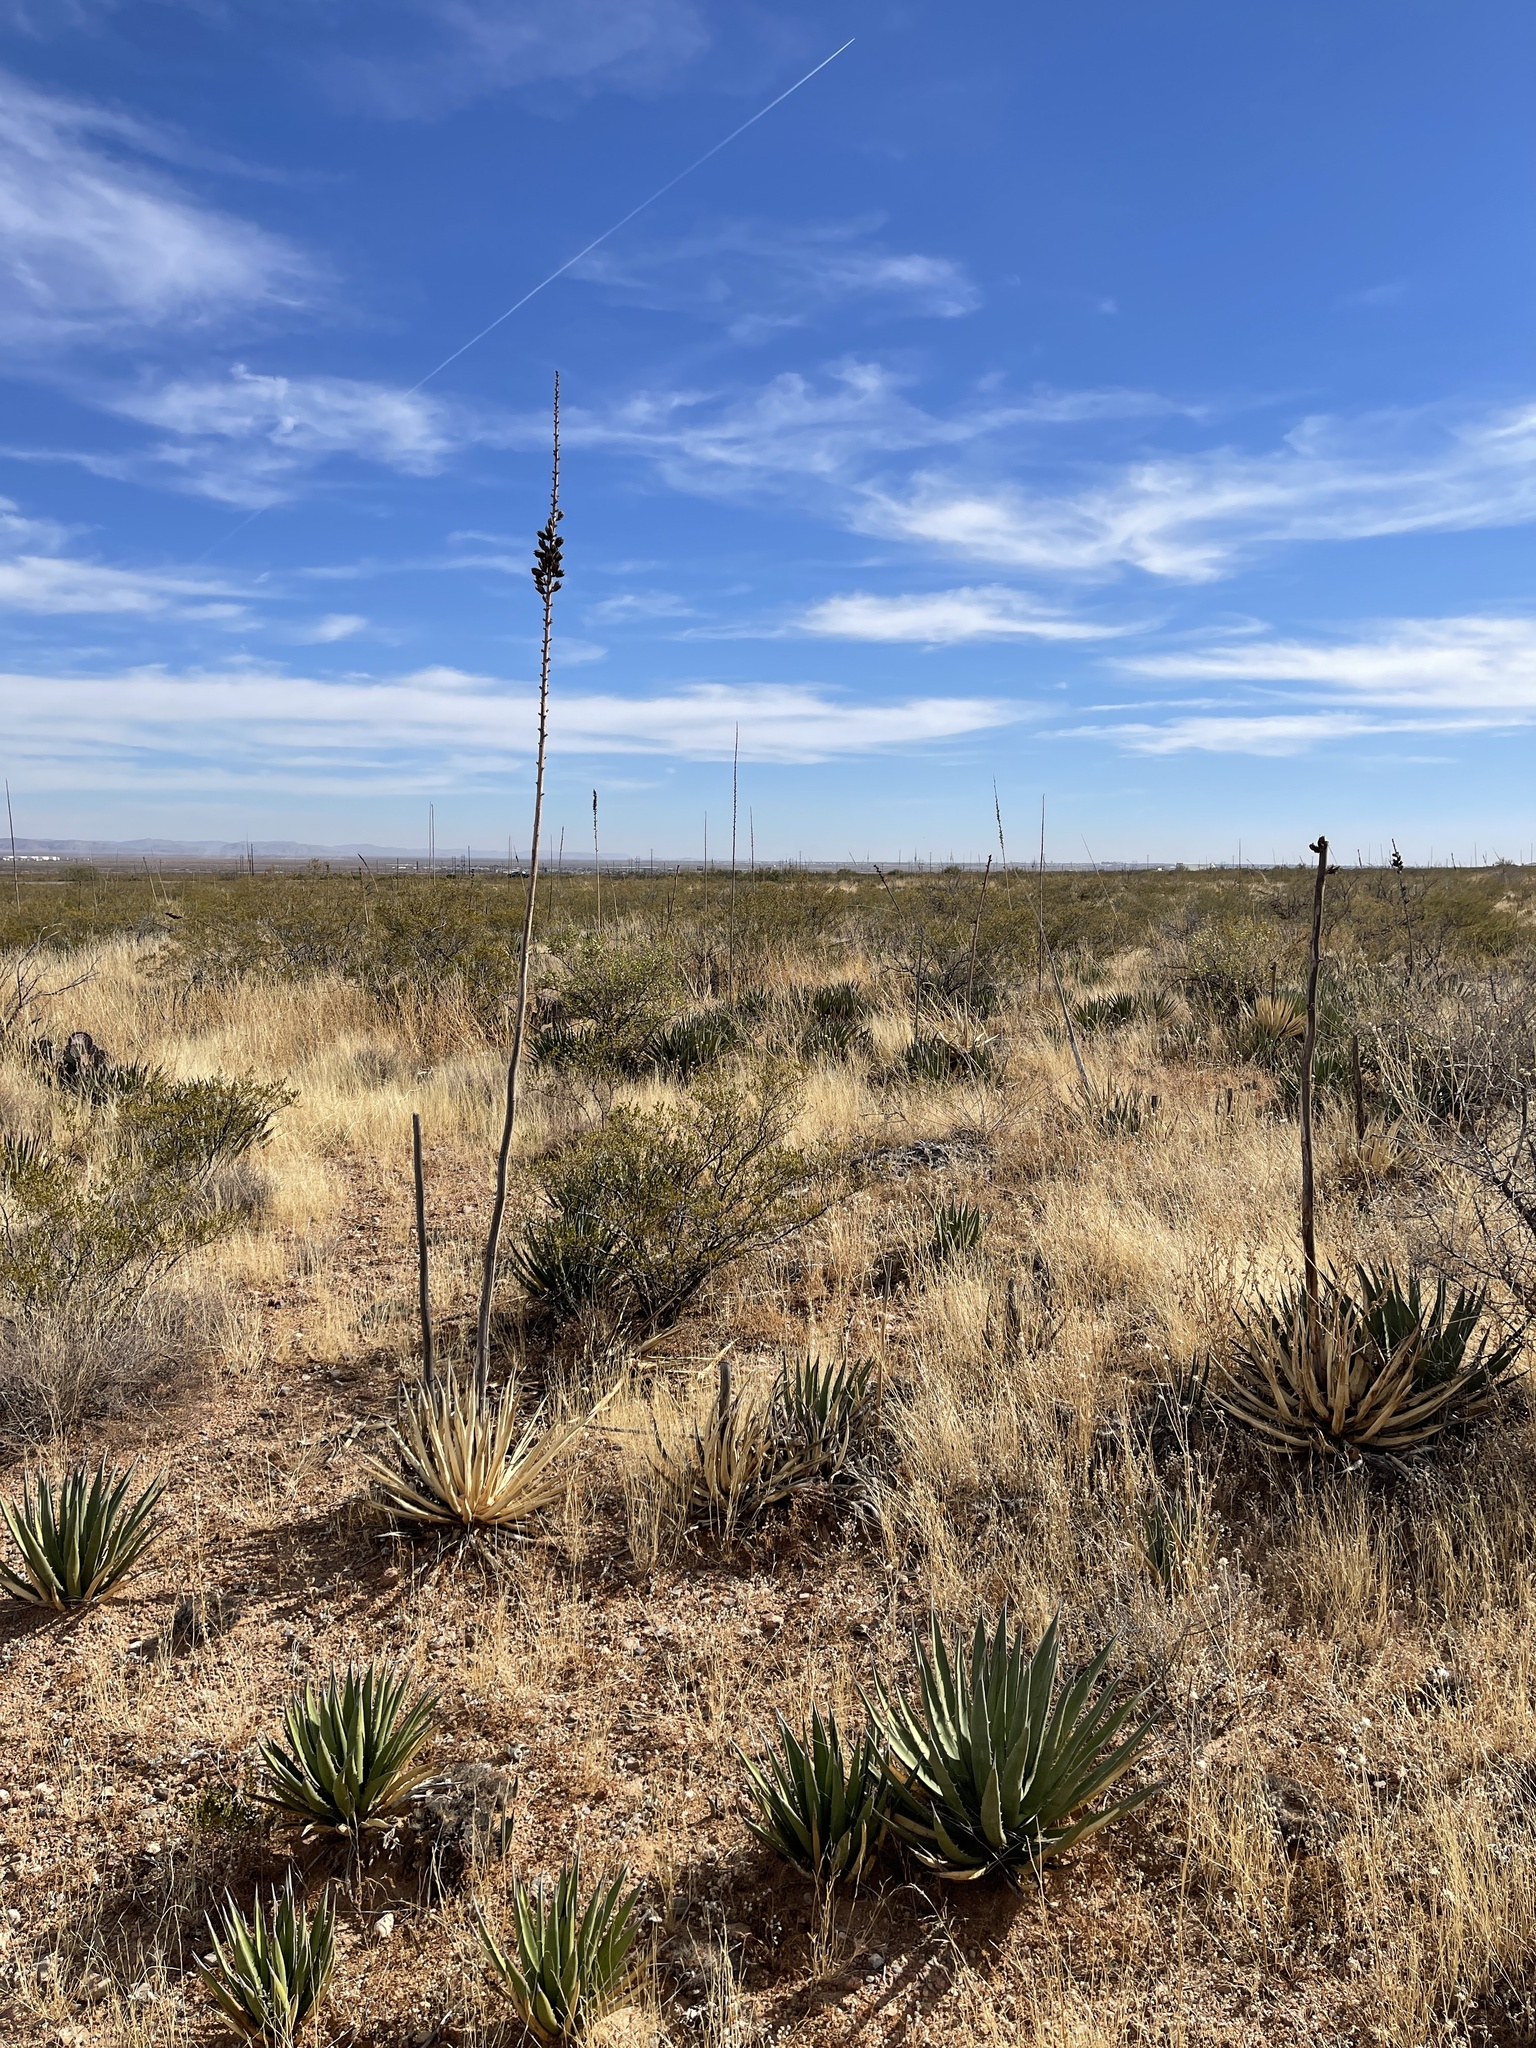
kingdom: Plantae
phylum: Tracheophyta
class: Liliopsida
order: Asparagales
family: Asparagaceae
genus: Agave
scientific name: Agave lechuguilla
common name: Lecheguilla agave
